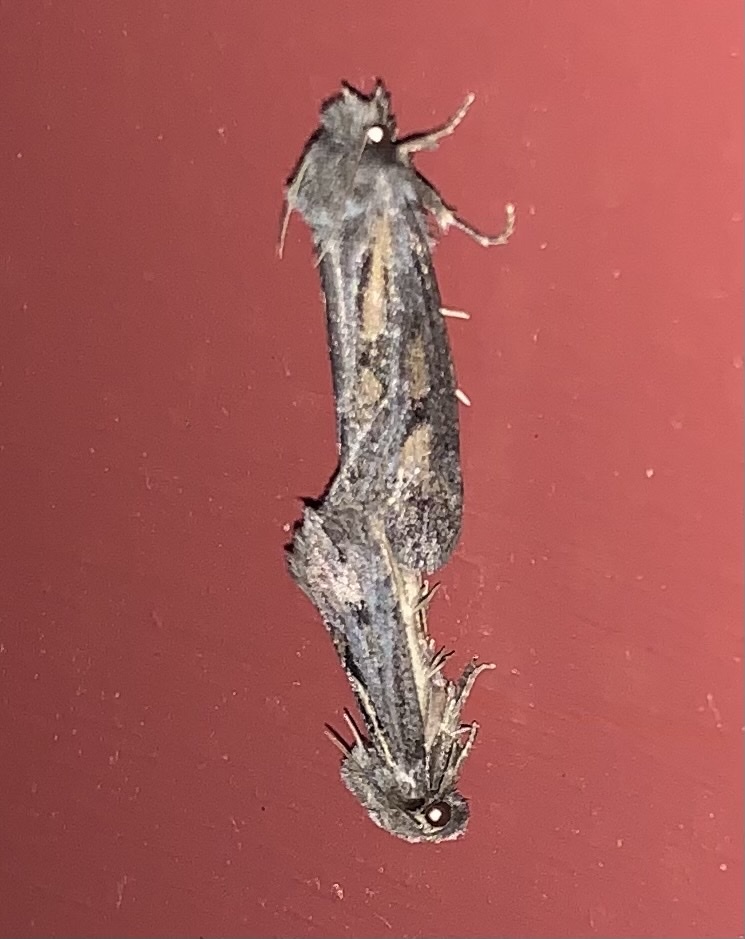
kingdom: Animalia
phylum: Arthropoda
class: Insecta
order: Lepidoptera
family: Tineidae
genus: Acrolophus
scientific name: Acrolophus popeanella
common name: Clemens' grass tubeworm moth
